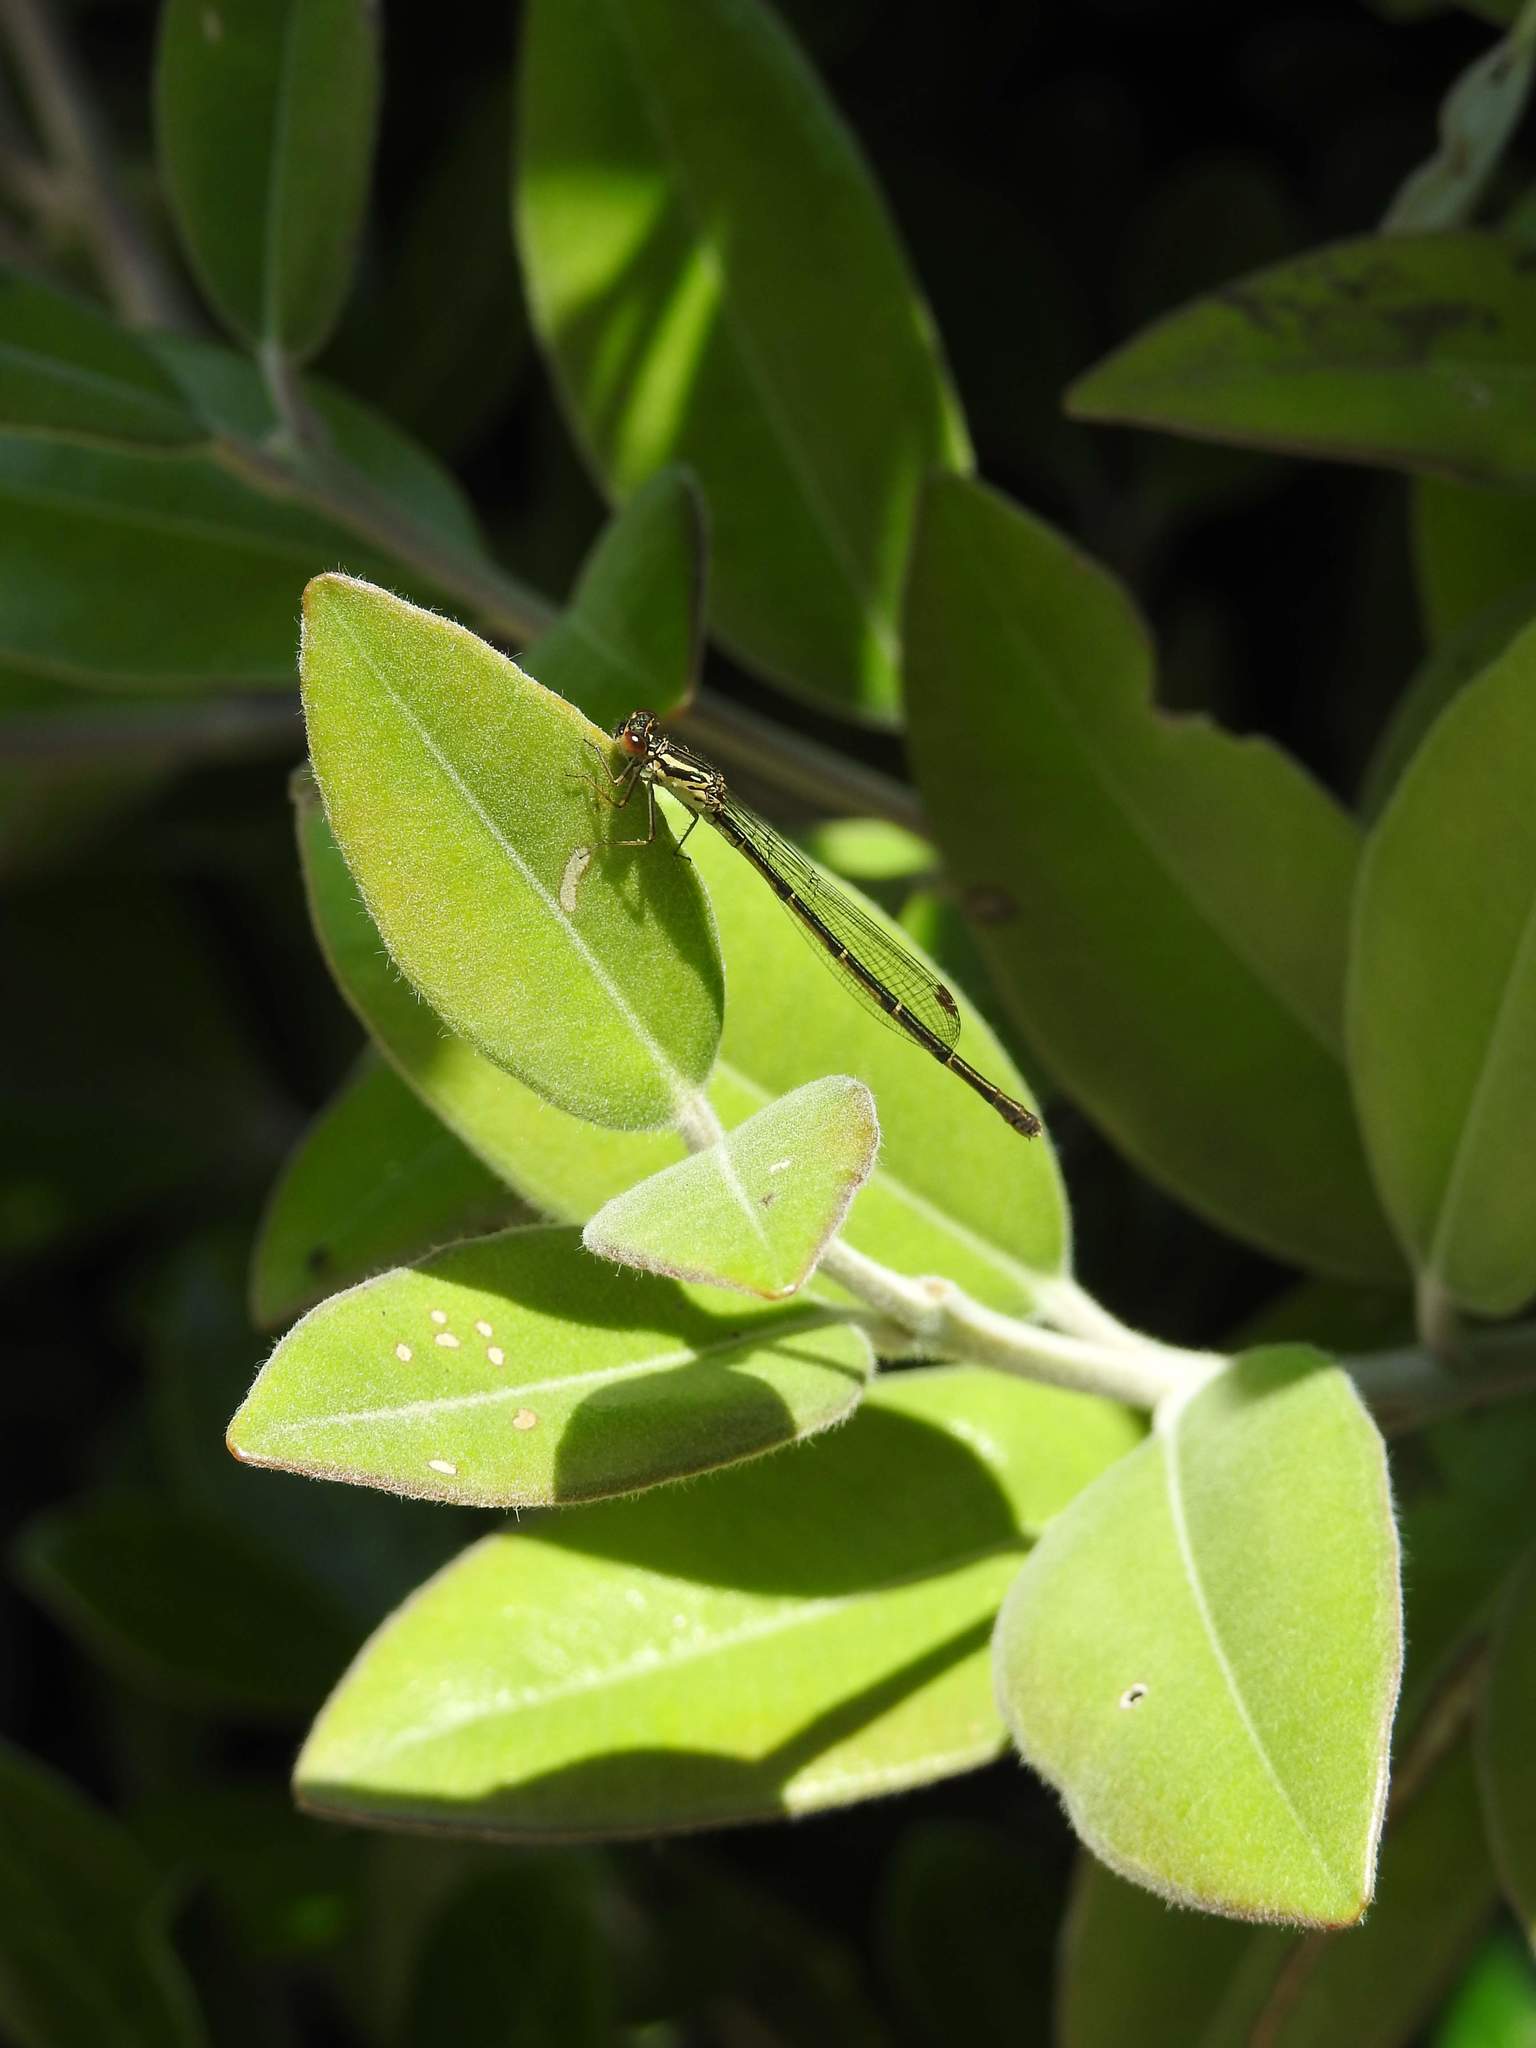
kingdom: Animalia
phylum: Arthropoda
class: Insecta
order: Odonata
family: Coenagrionidae
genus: Xanthocnemis
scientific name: Xanthocnemis zealandica
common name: Common redcoat damselfly
